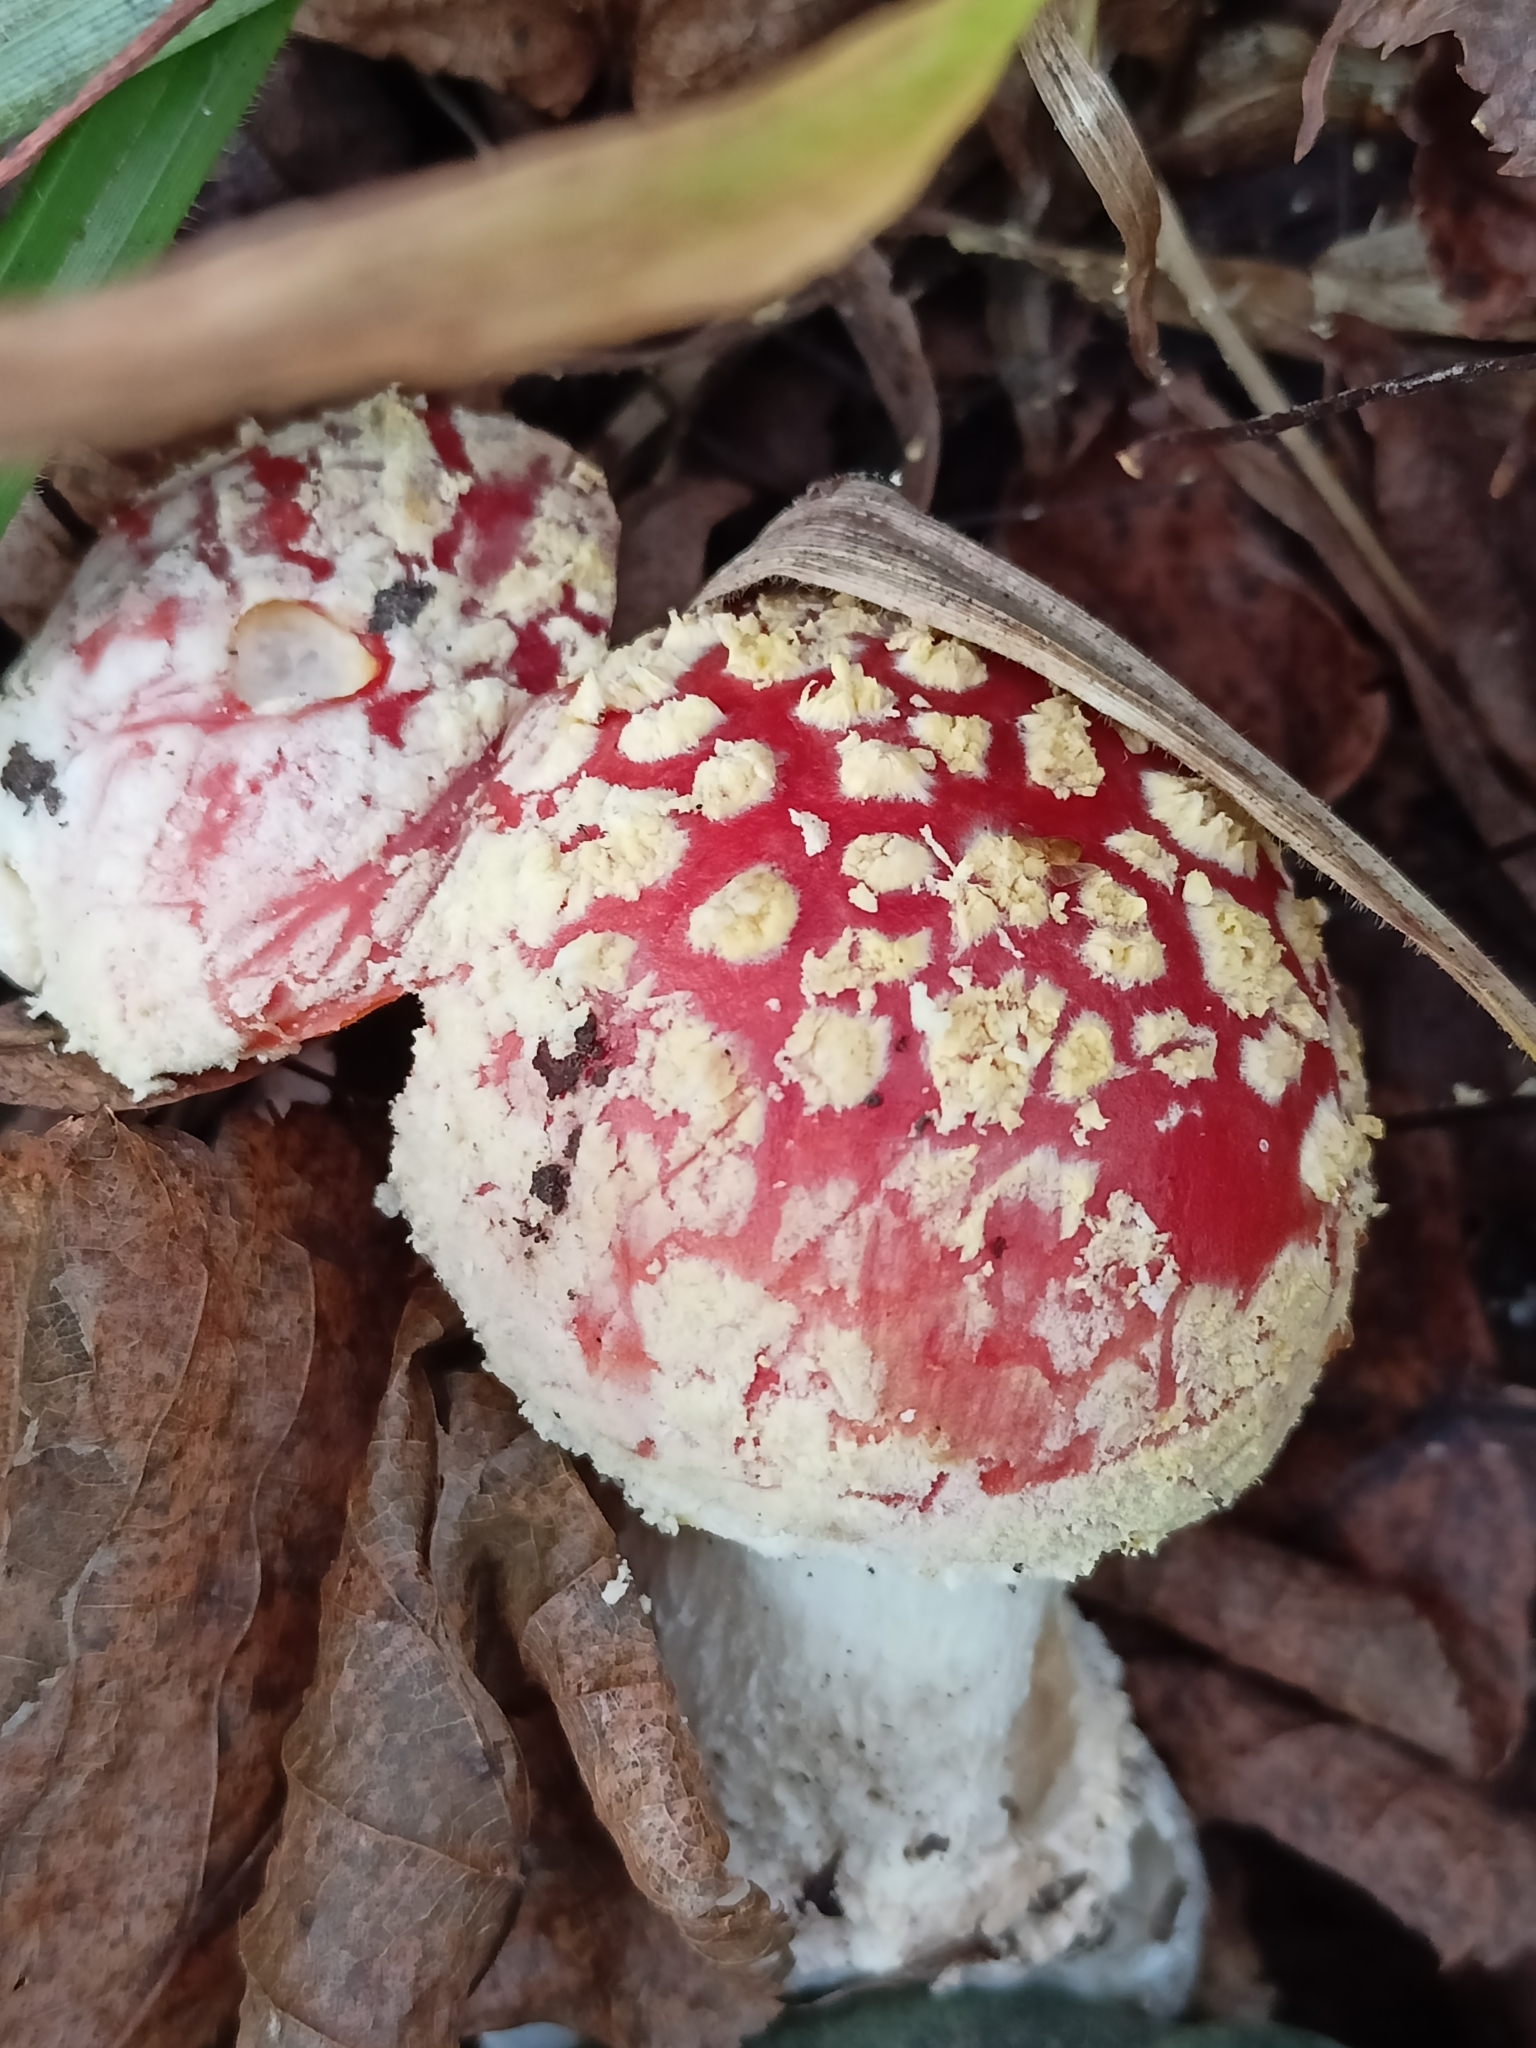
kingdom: Fungi
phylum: Basidiomycota
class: Agaricomycetes
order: Agaricales
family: Amanitaceae
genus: Amanita
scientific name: Amanita muscaria
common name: Fly agaric
